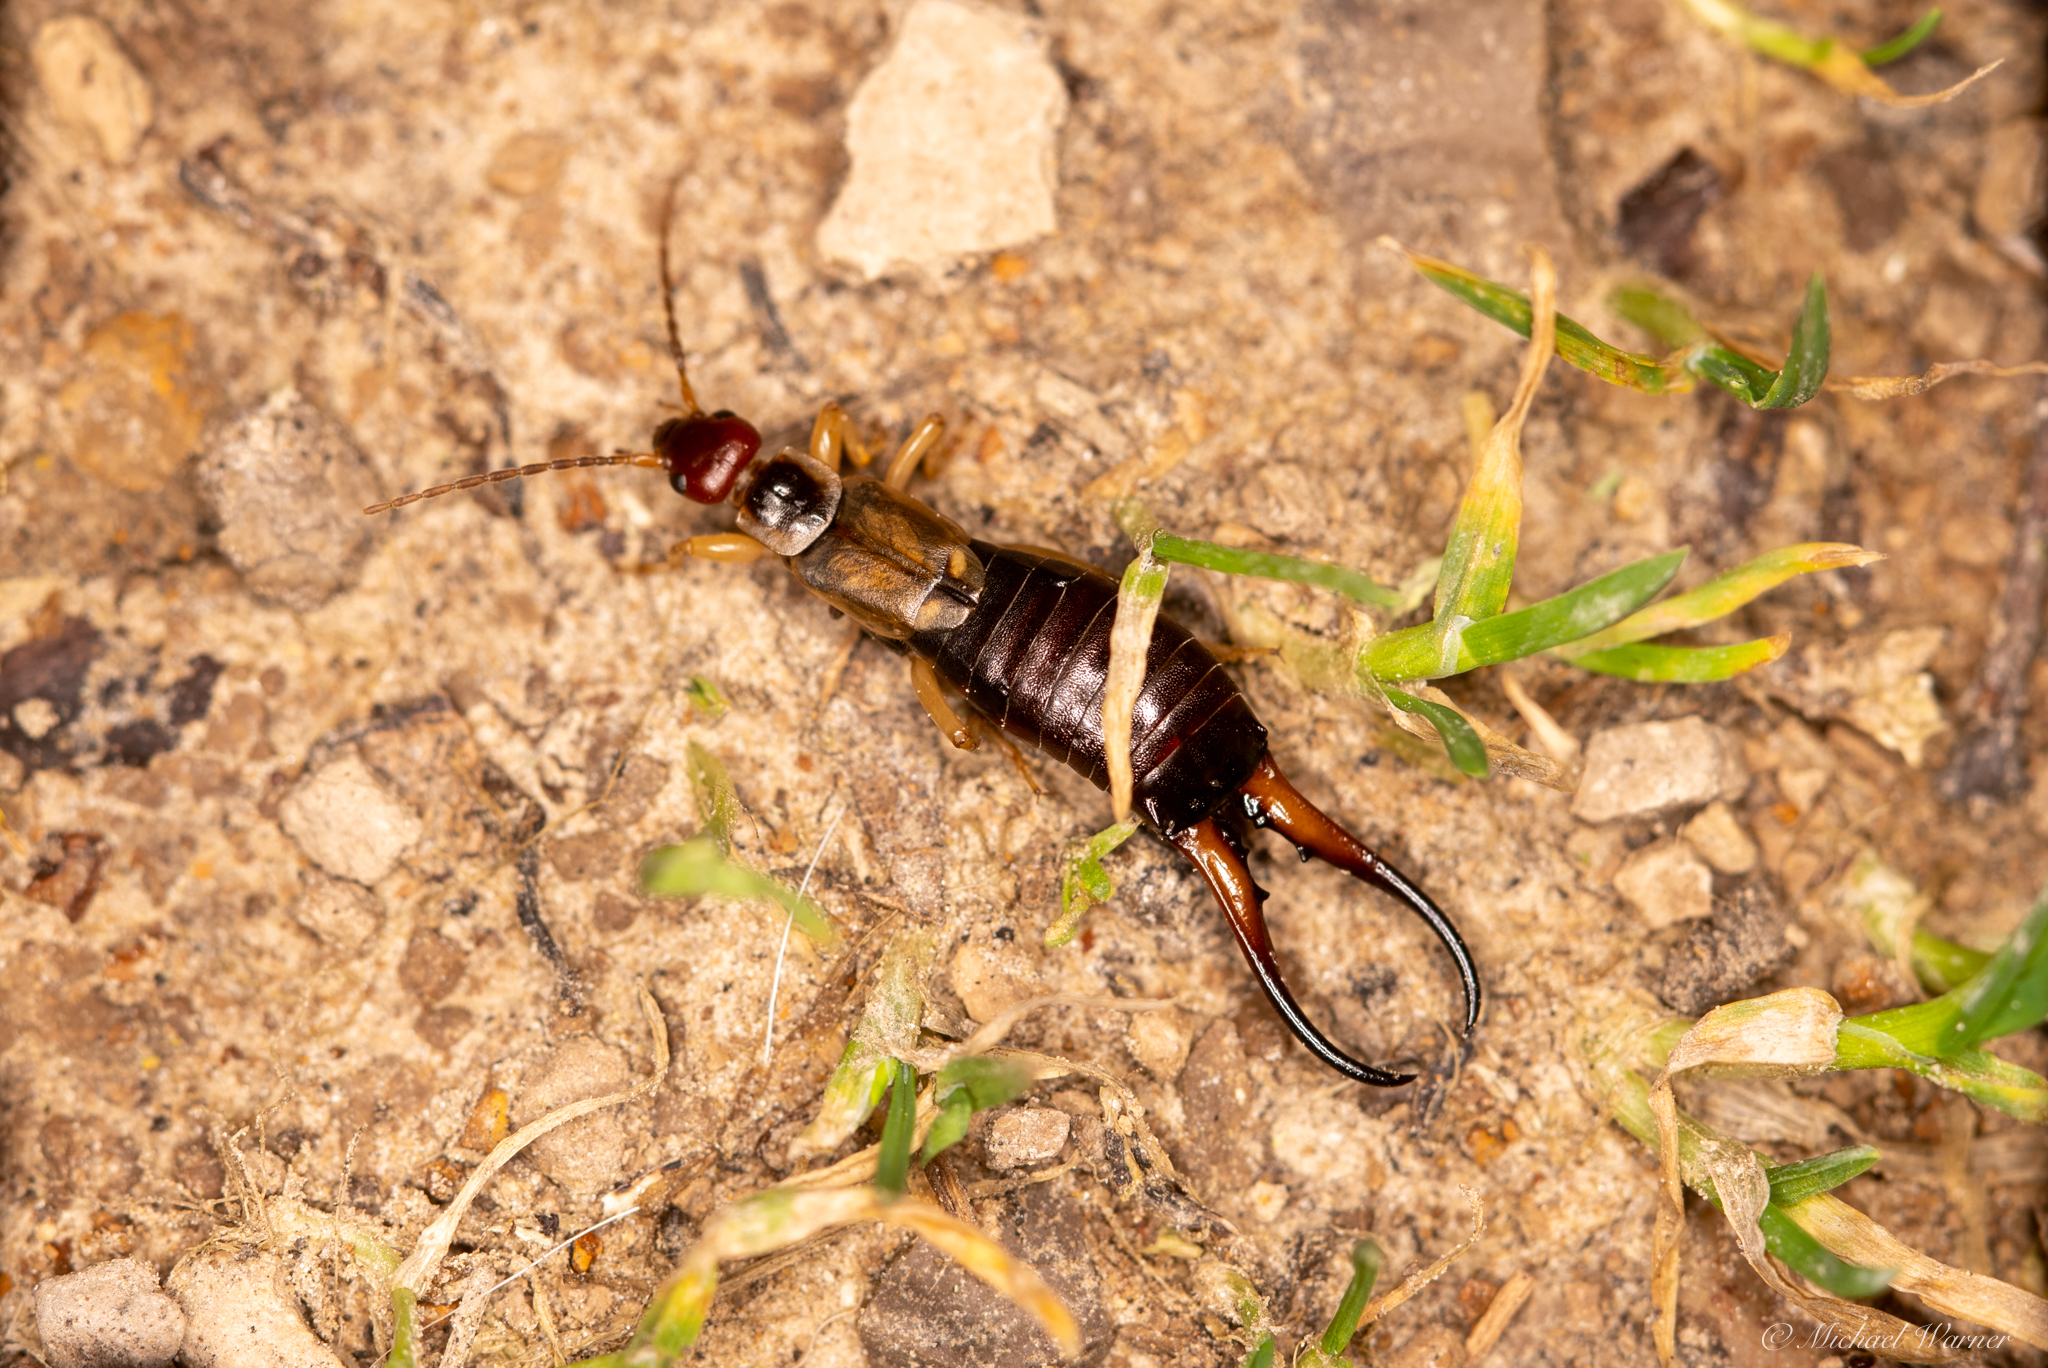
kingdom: Animalia
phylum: Arthropoda
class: Insecta
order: Dermaptera
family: Forficulidae
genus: Forficula
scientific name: Forficula dentata
